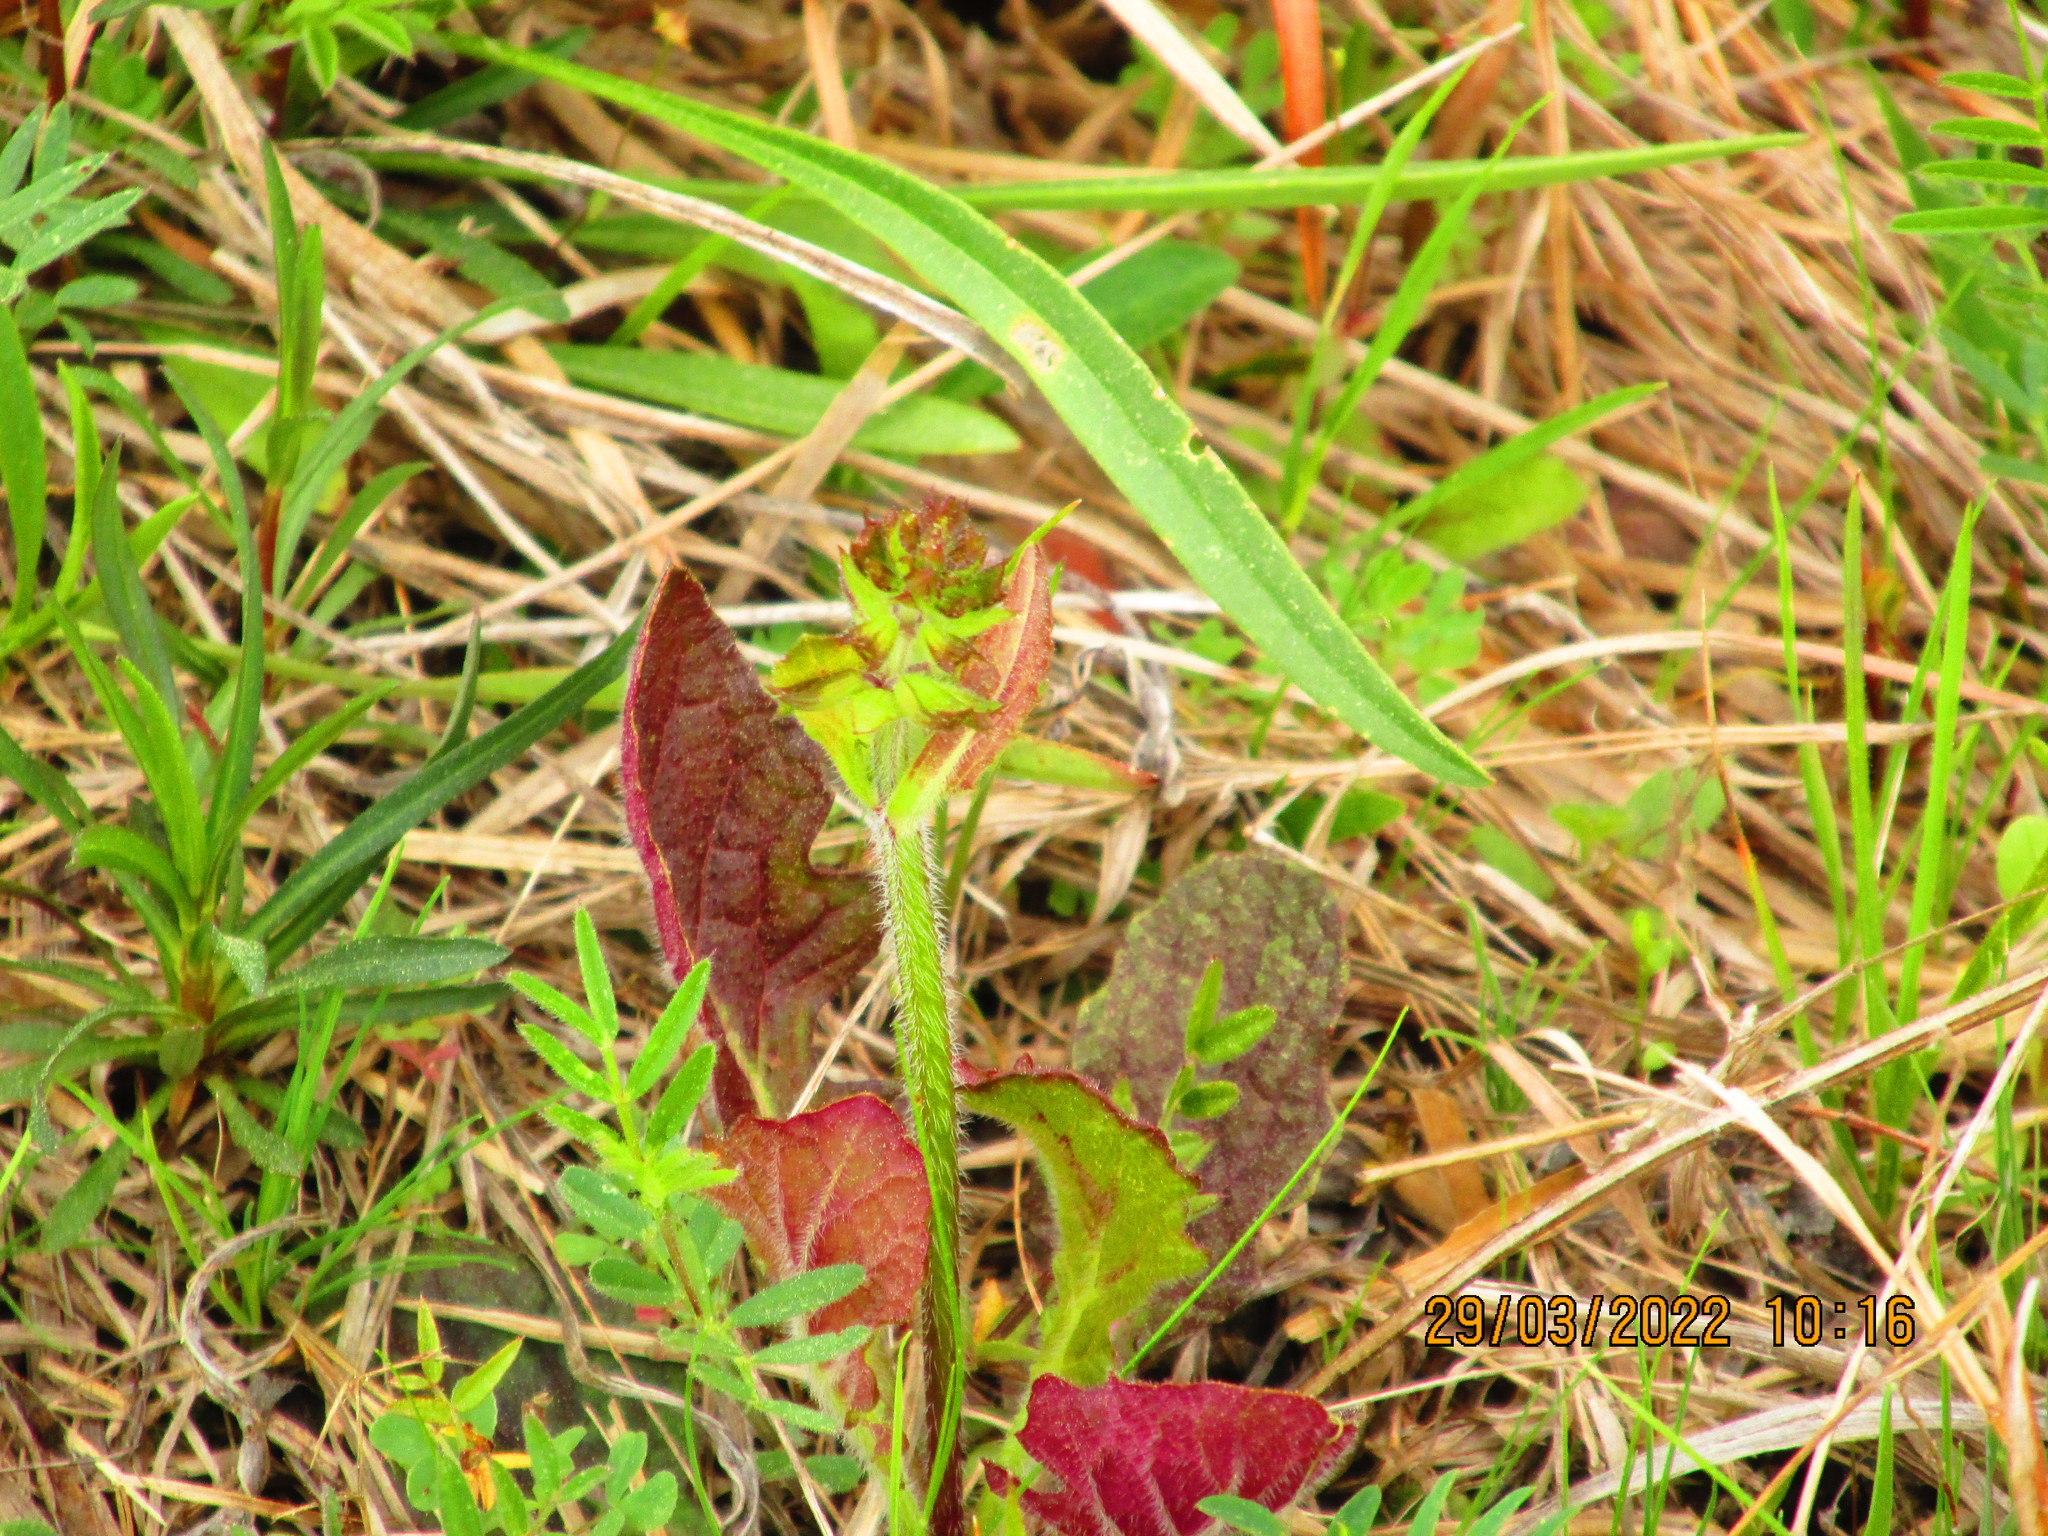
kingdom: Plantae
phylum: Tracheophyta
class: Magnoliopsida
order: Lamiales
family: Lamiaceae
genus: Salvia
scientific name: Salvia lyrata
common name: Cancerweed
